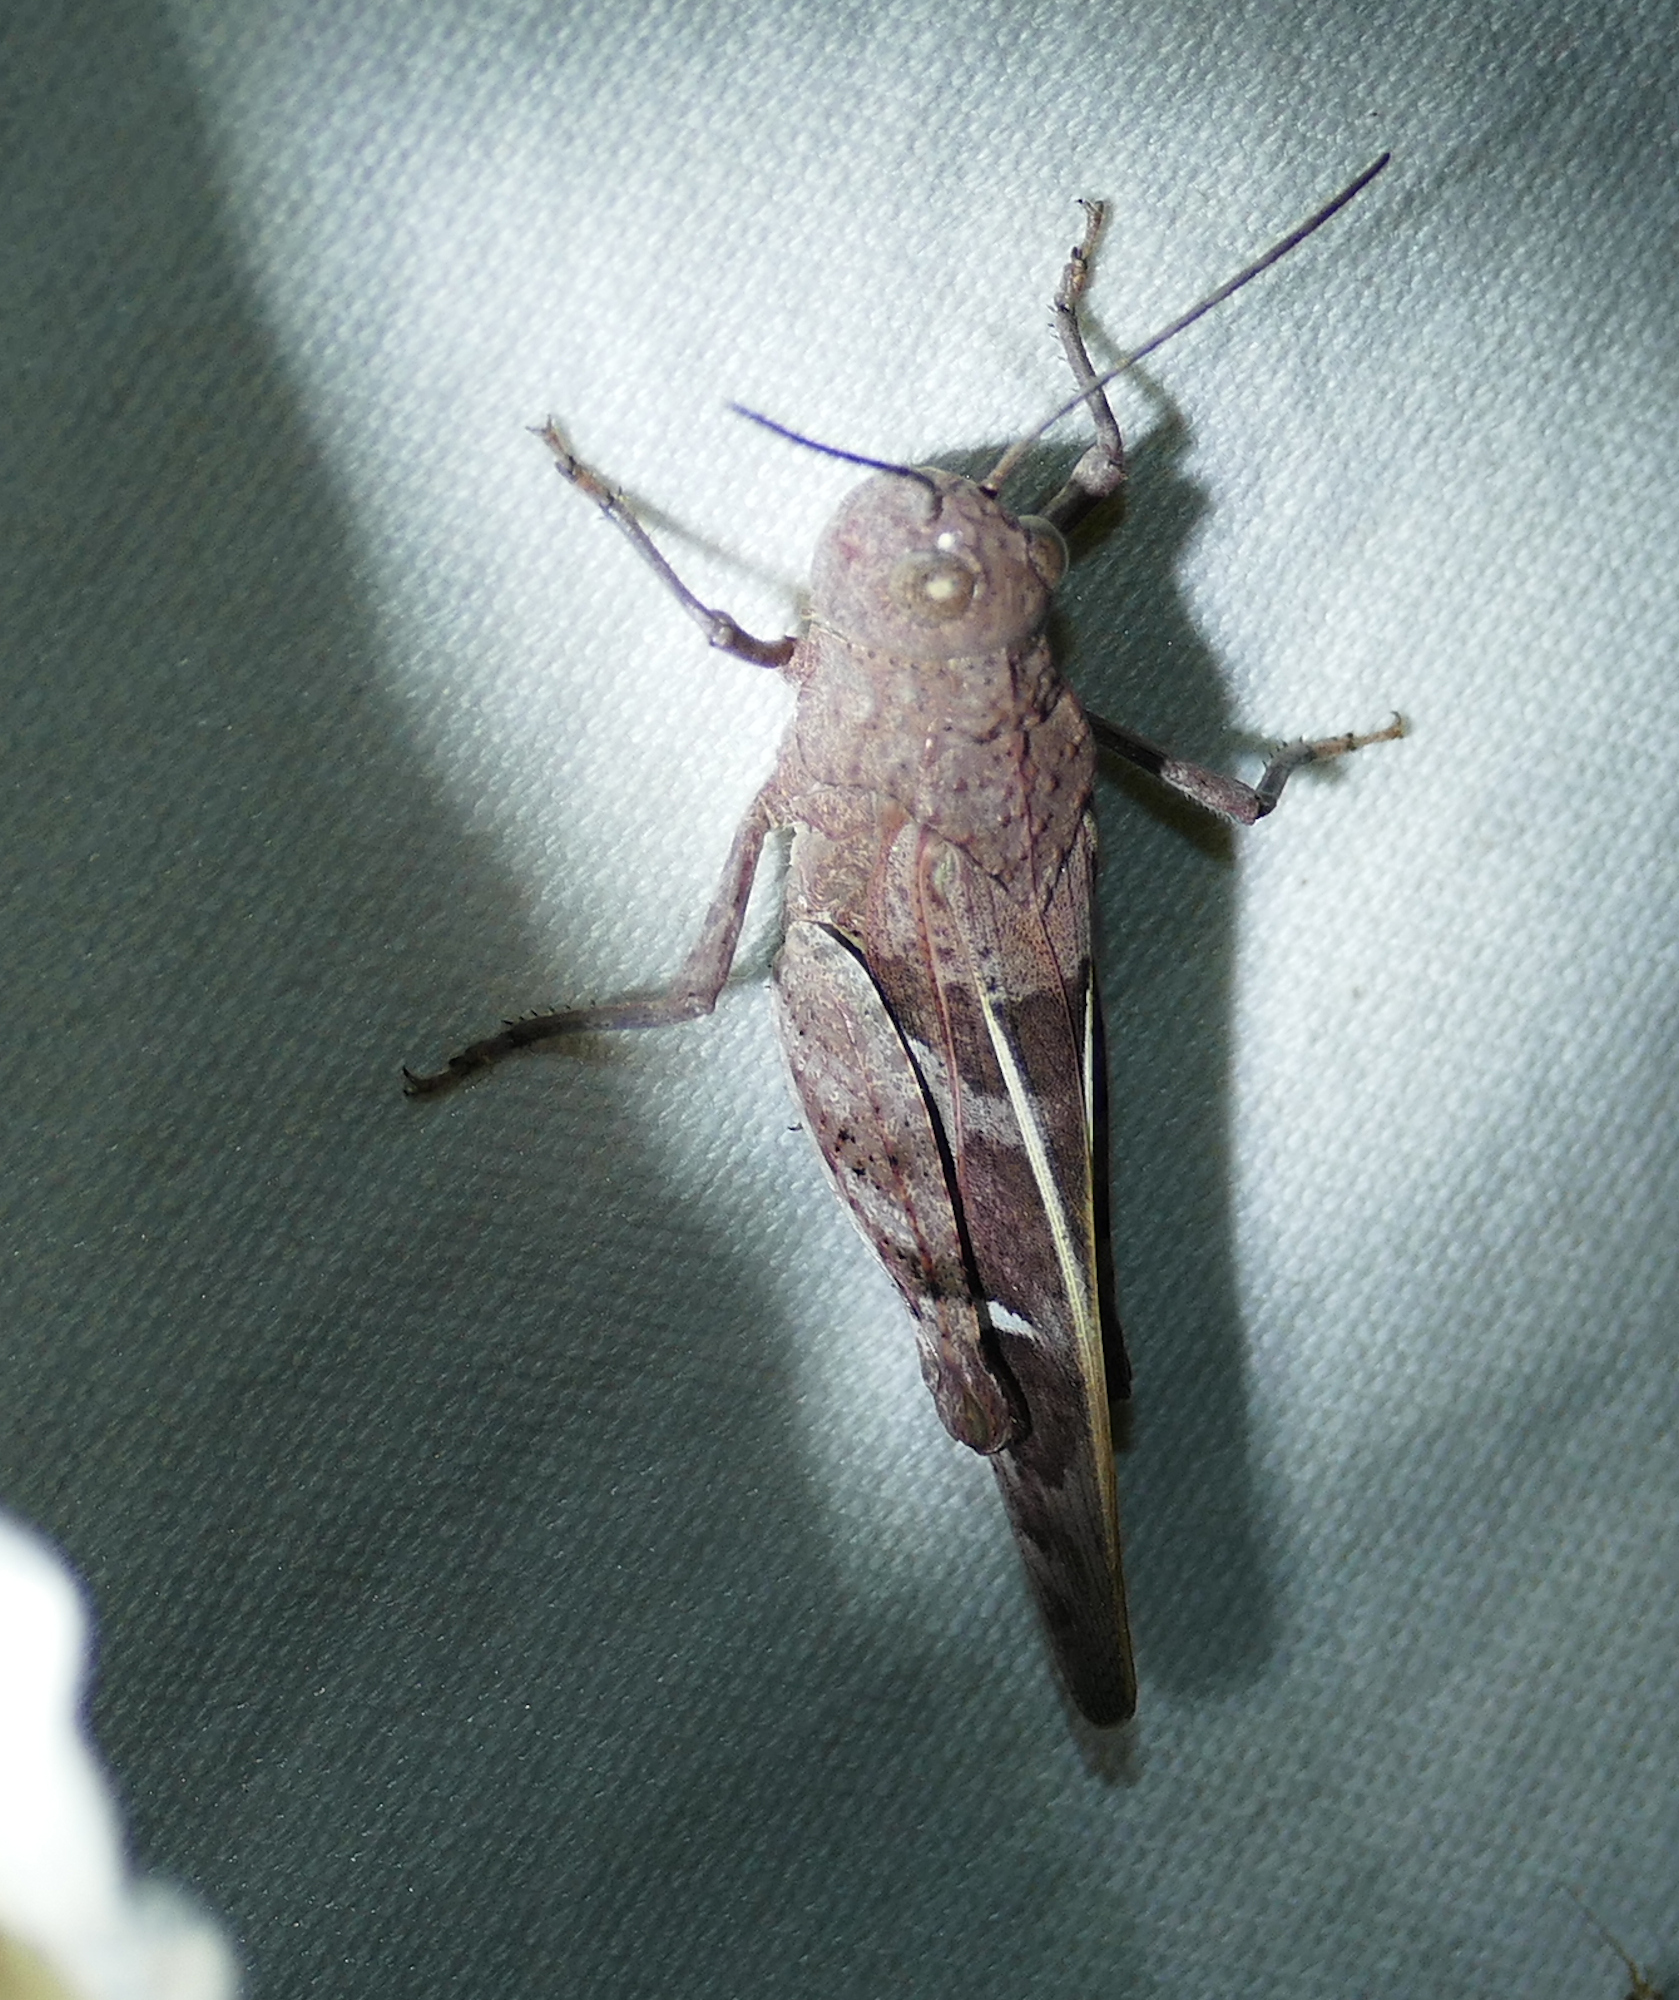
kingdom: Animalia
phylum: Arthropoda
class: Insecta
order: Orthoptera
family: Acrididae
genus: Leprus
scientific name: Leprus intermedius
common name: Saussure's blue-winged grasshopper
